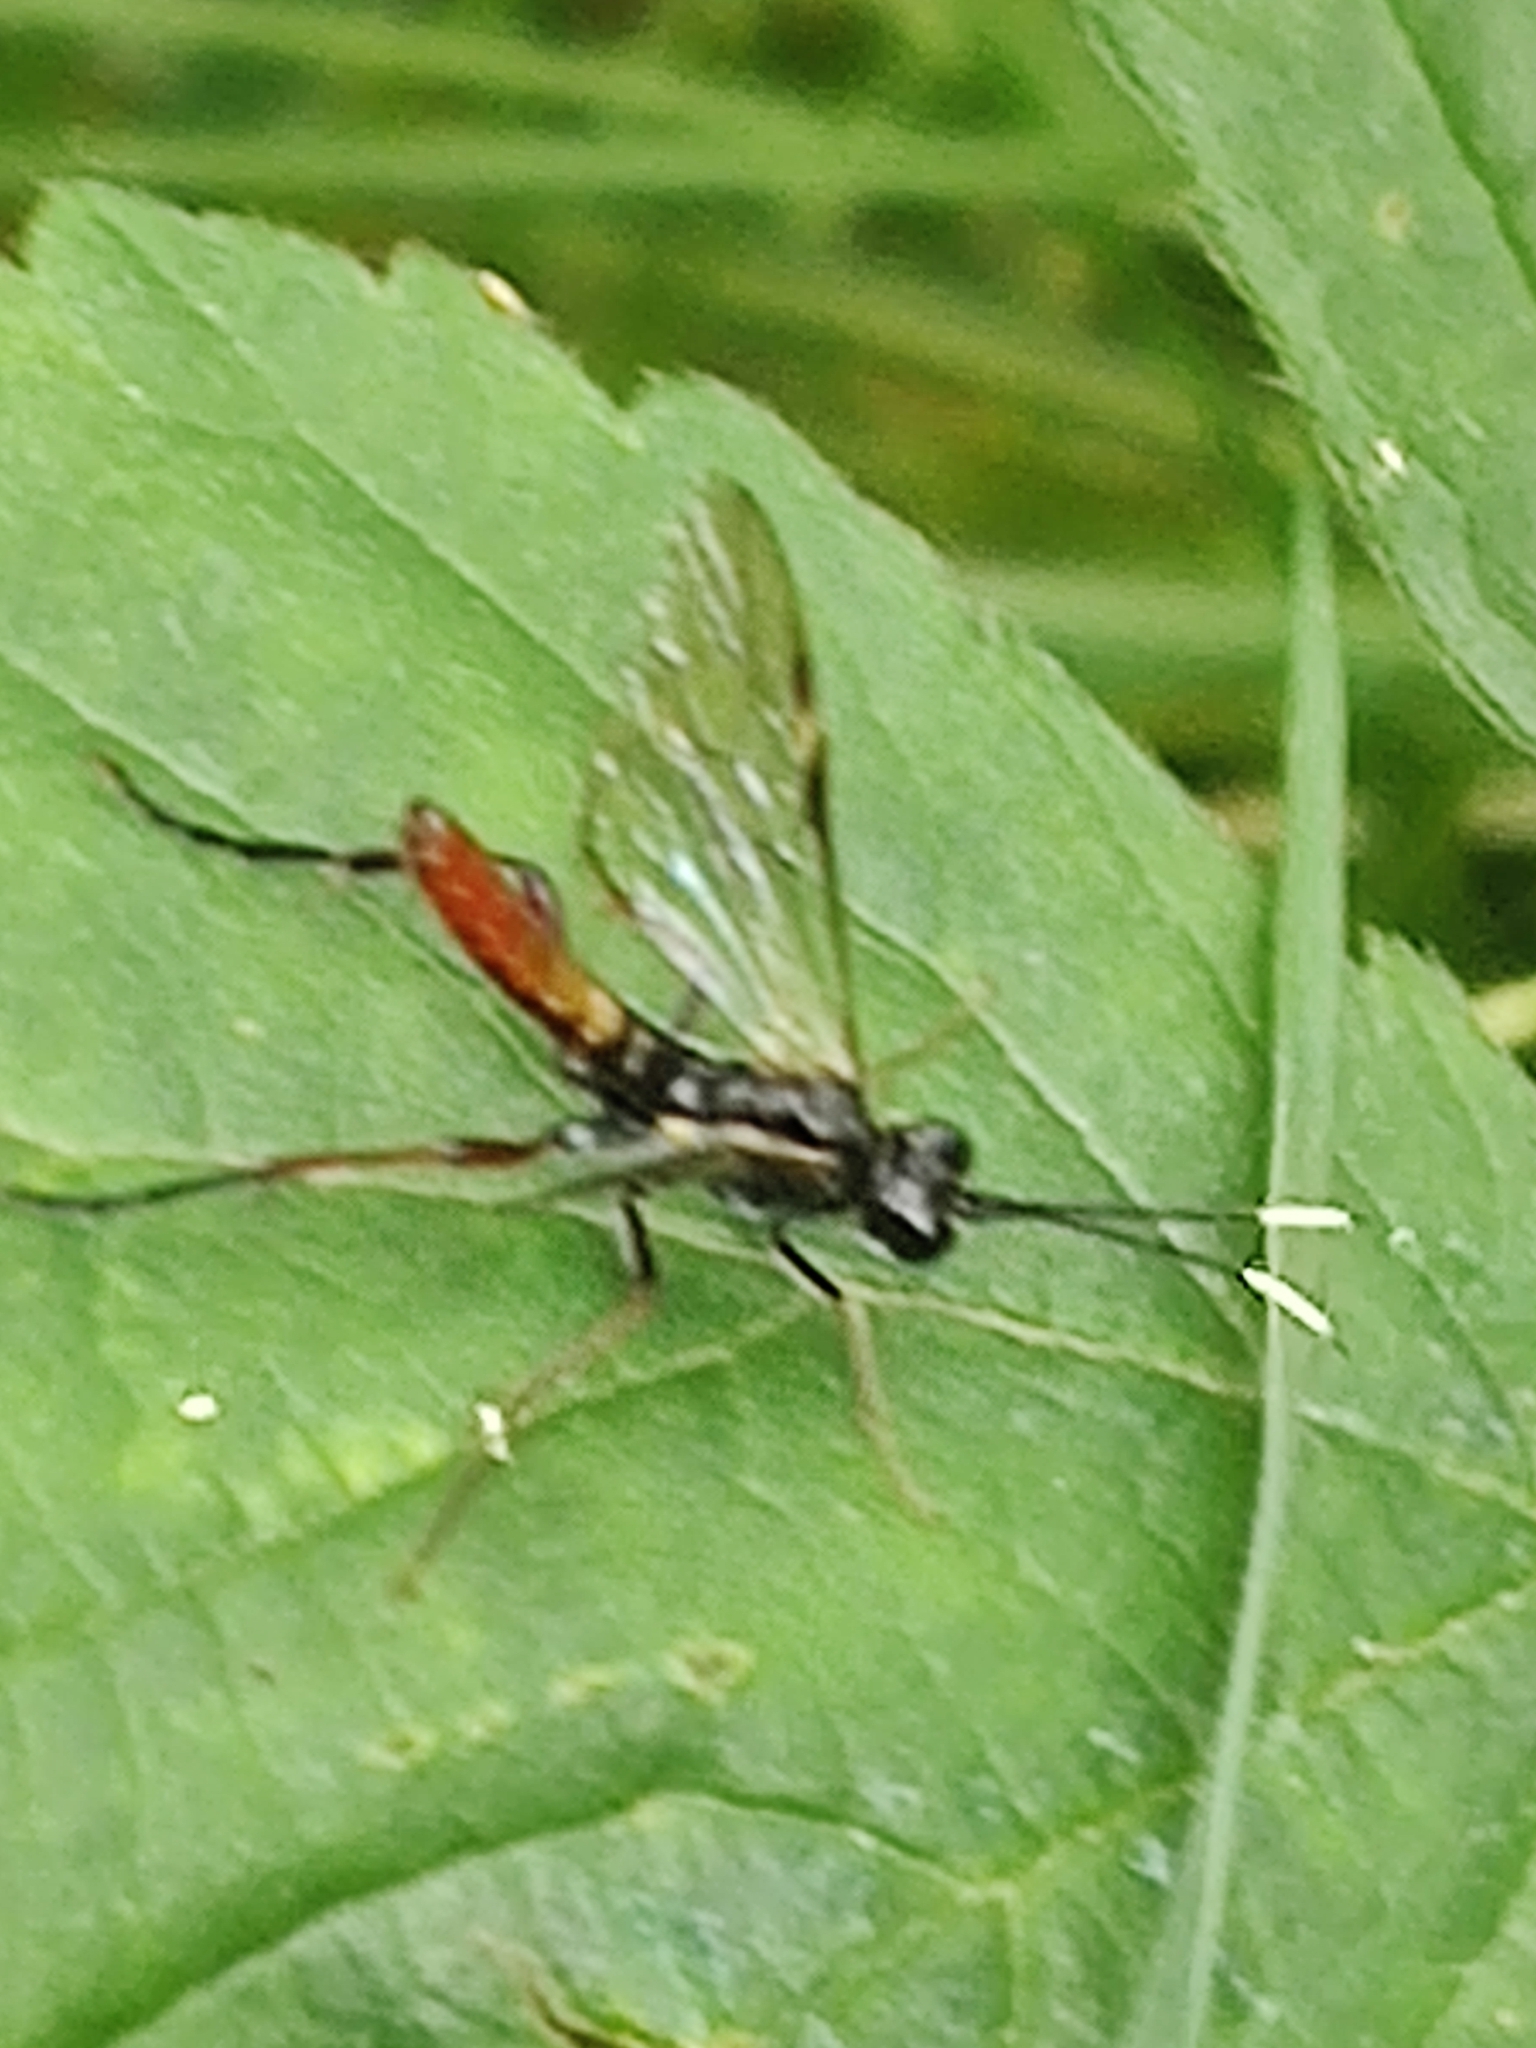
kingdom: Animalia
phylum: Arthropoda
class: Insecta
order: Hymenoptera
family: Tenthredinidae
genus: Tenthredo
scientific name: Tenthredo livida
